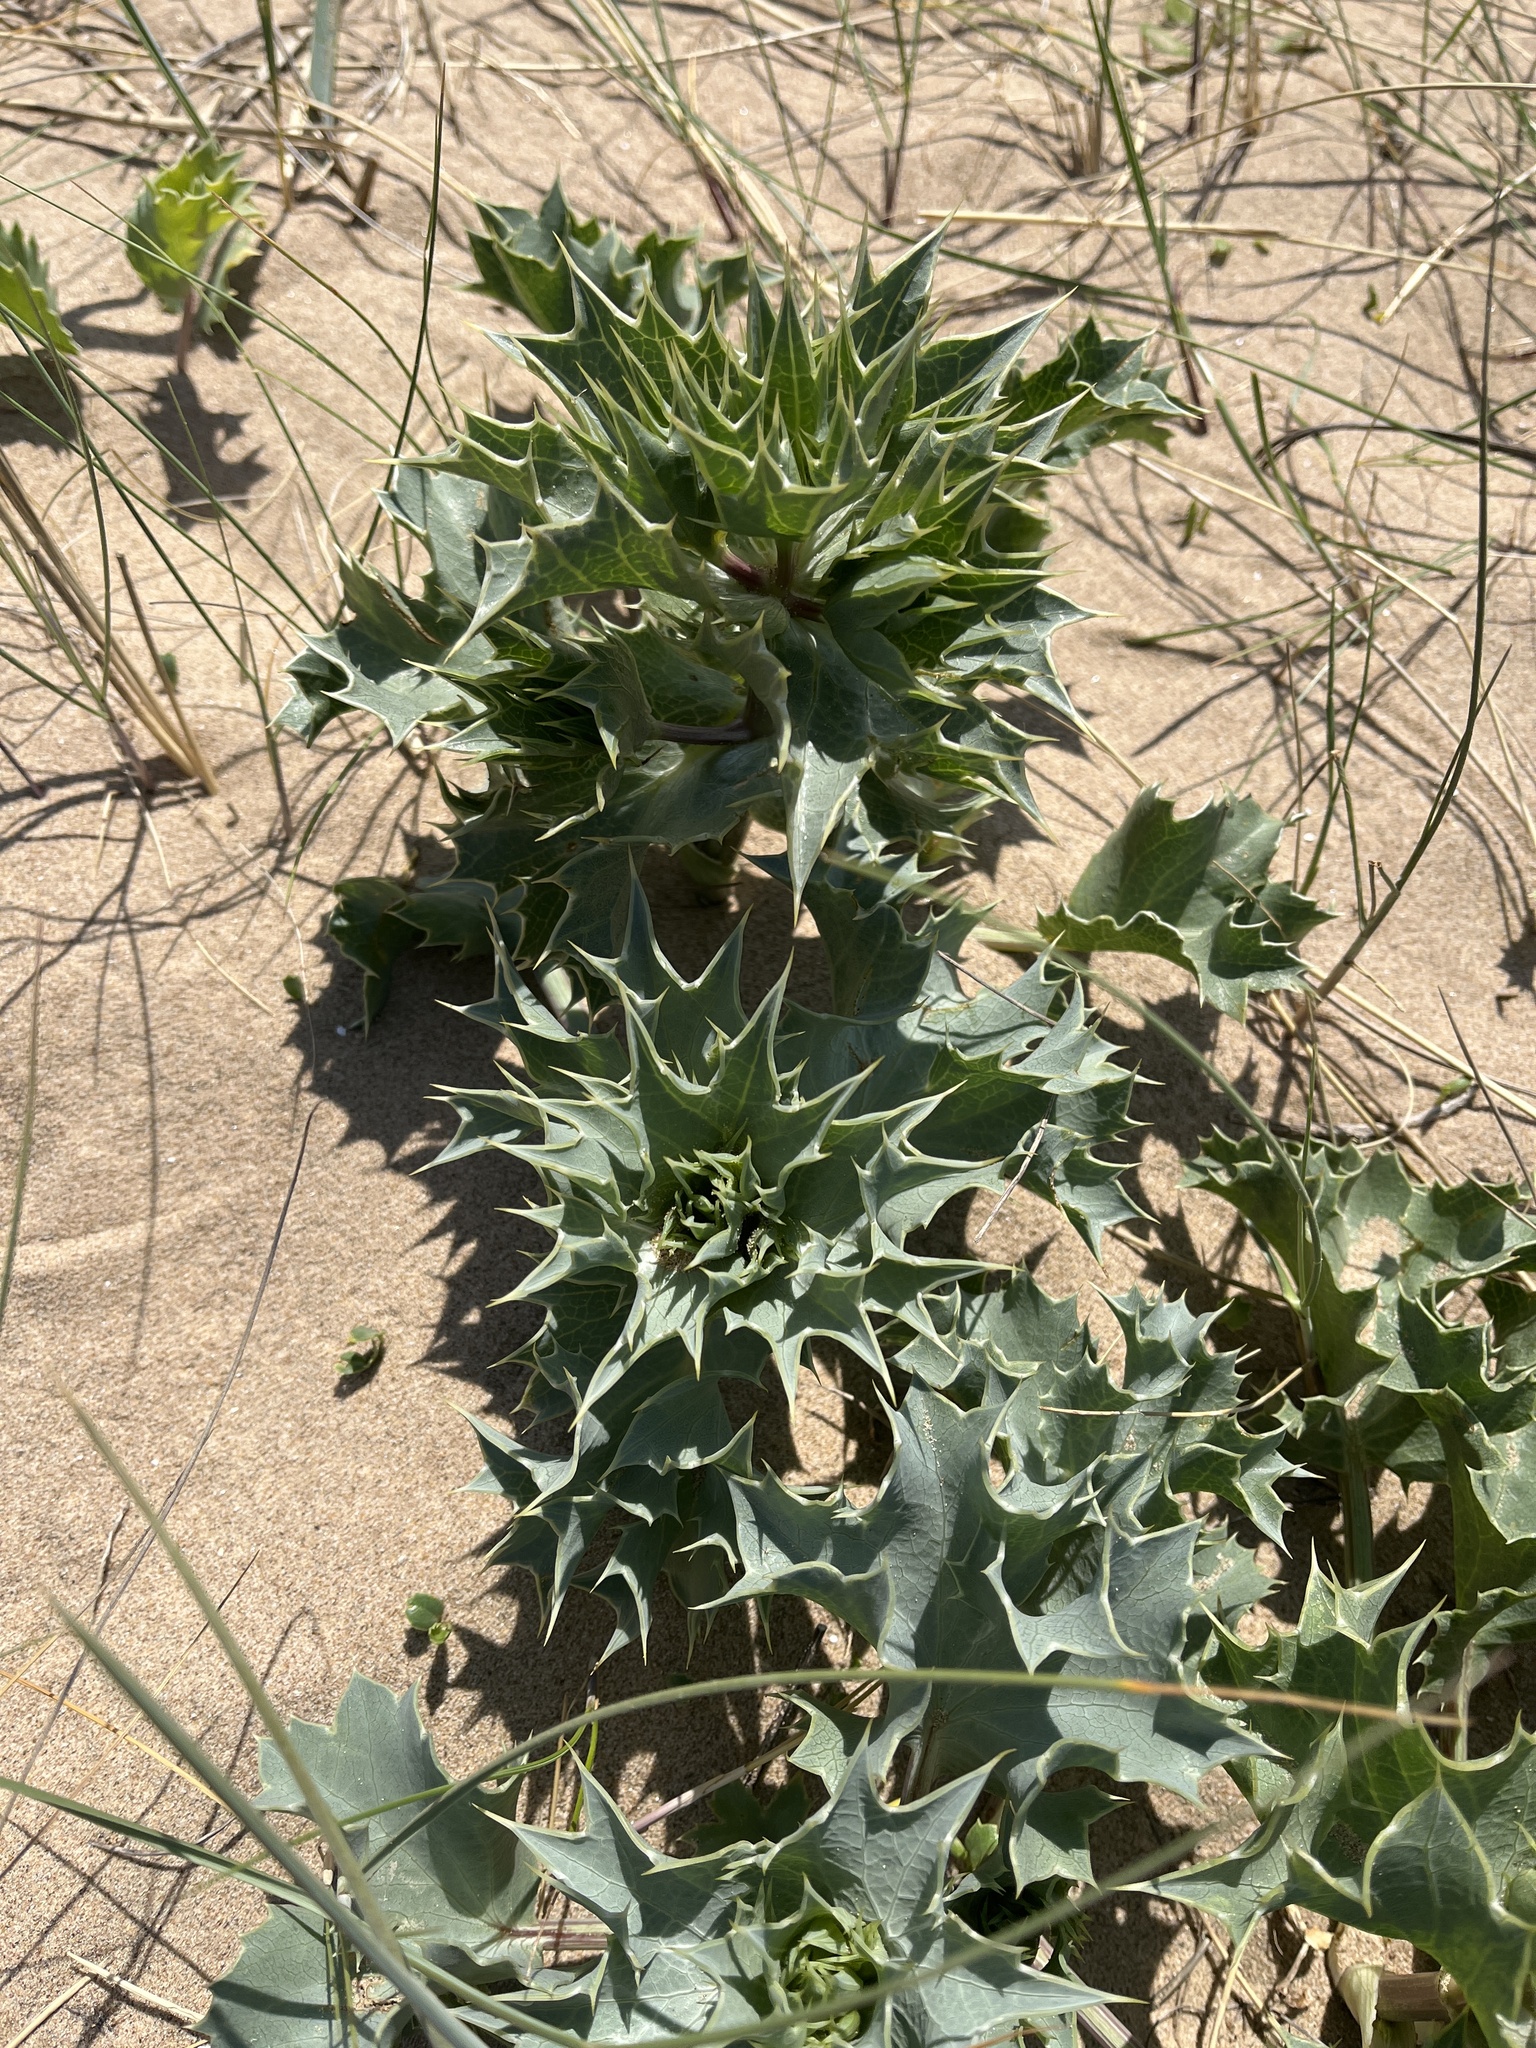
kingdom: Plantae
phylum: Tracheophyta
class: Magnoliopsida
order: Apiales
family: Apiaceae
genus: Eryngium
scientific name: Eryngium maritimum
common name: Sea-holly
